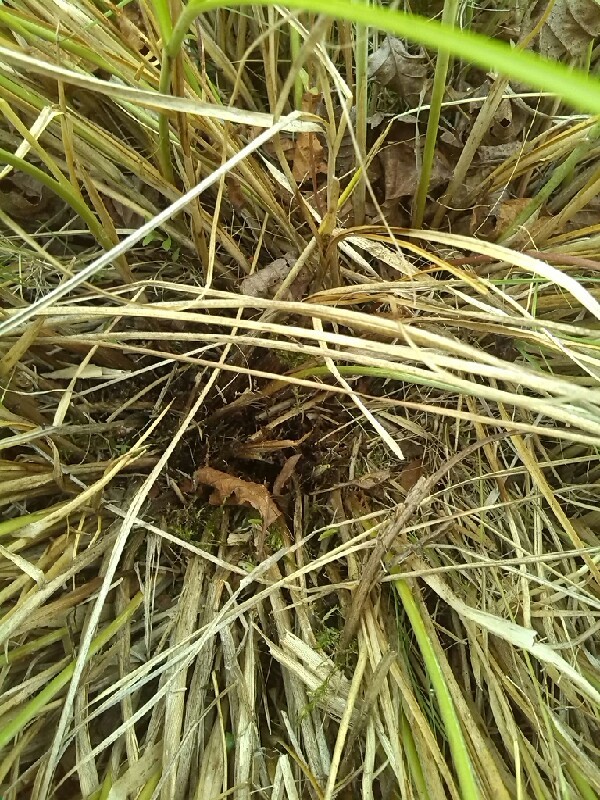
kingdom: Plantae
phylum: Tracheophyta
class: Liliopsida
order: Poales
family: Cyperaceae
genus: Carex
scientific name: Carex appropinquata
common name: Fibrous tussock-sedge
